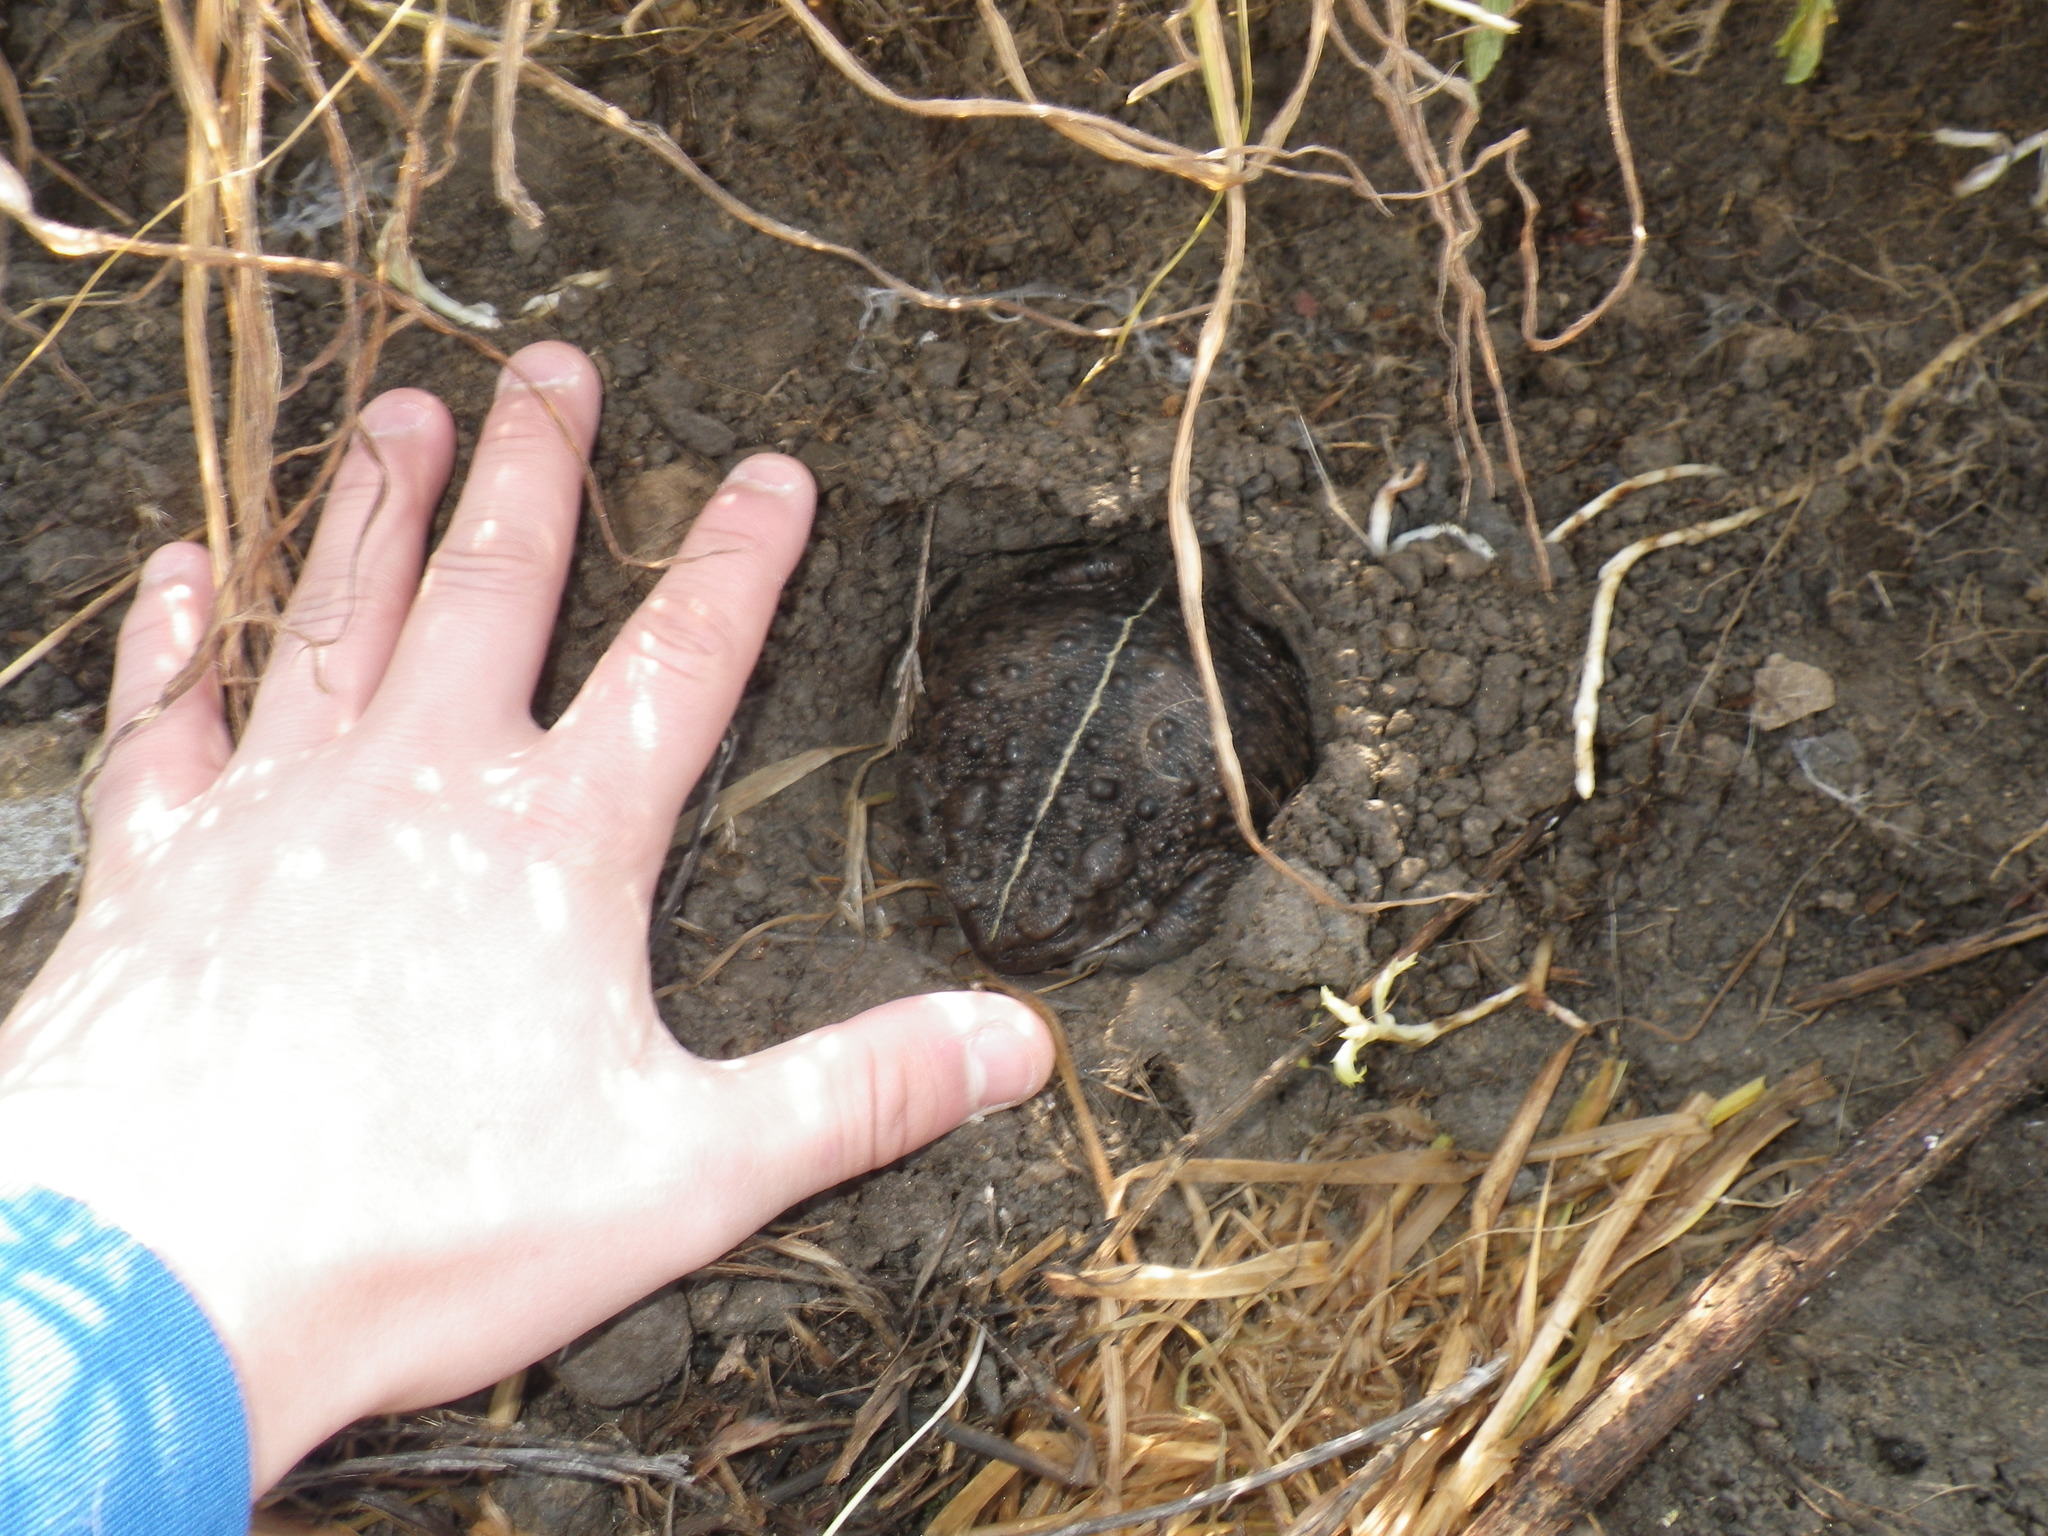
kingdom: Animalia
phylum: Chordata
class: Amphibia
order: Anura
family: Bufonidae
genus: Anaxyrus
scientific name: Anaxyrus boreas
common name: Western toad
